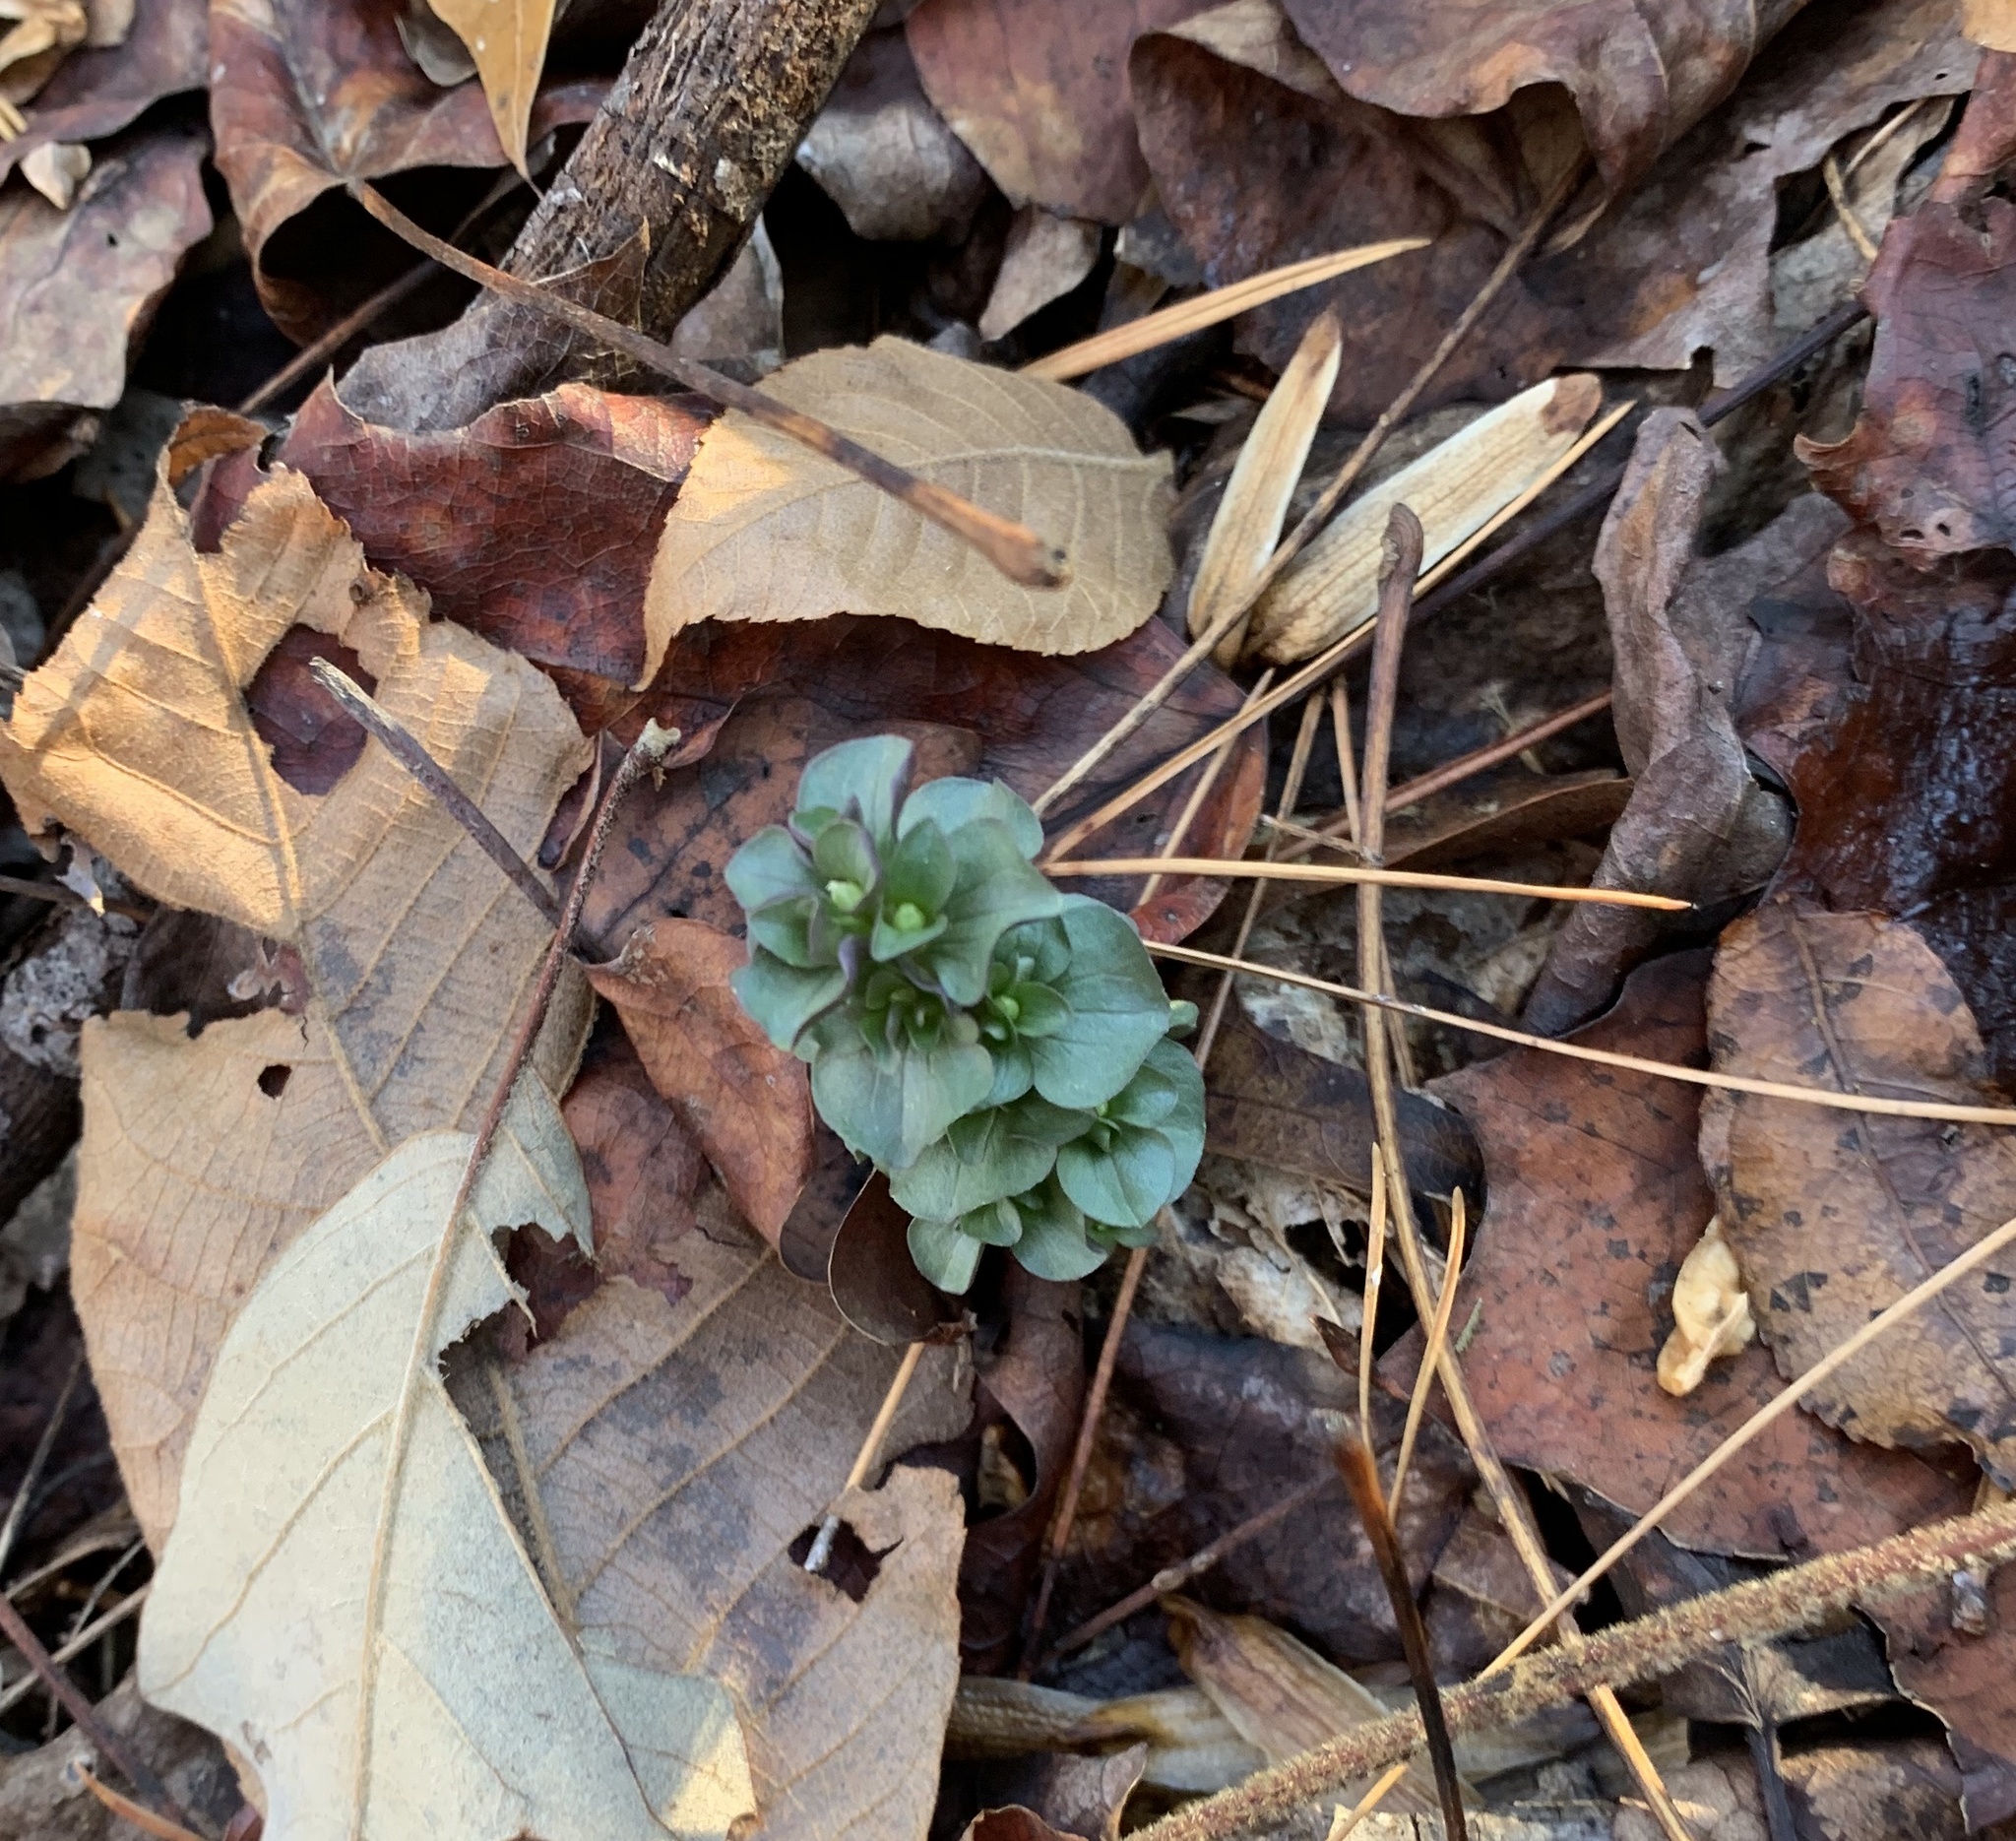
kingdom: Plantae
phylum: Tracheophyta
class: Magnoliopsida
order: Gentianales
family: Gentianaceae
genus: Obolaria
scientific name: Obolaria virginica
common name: Pennywort
